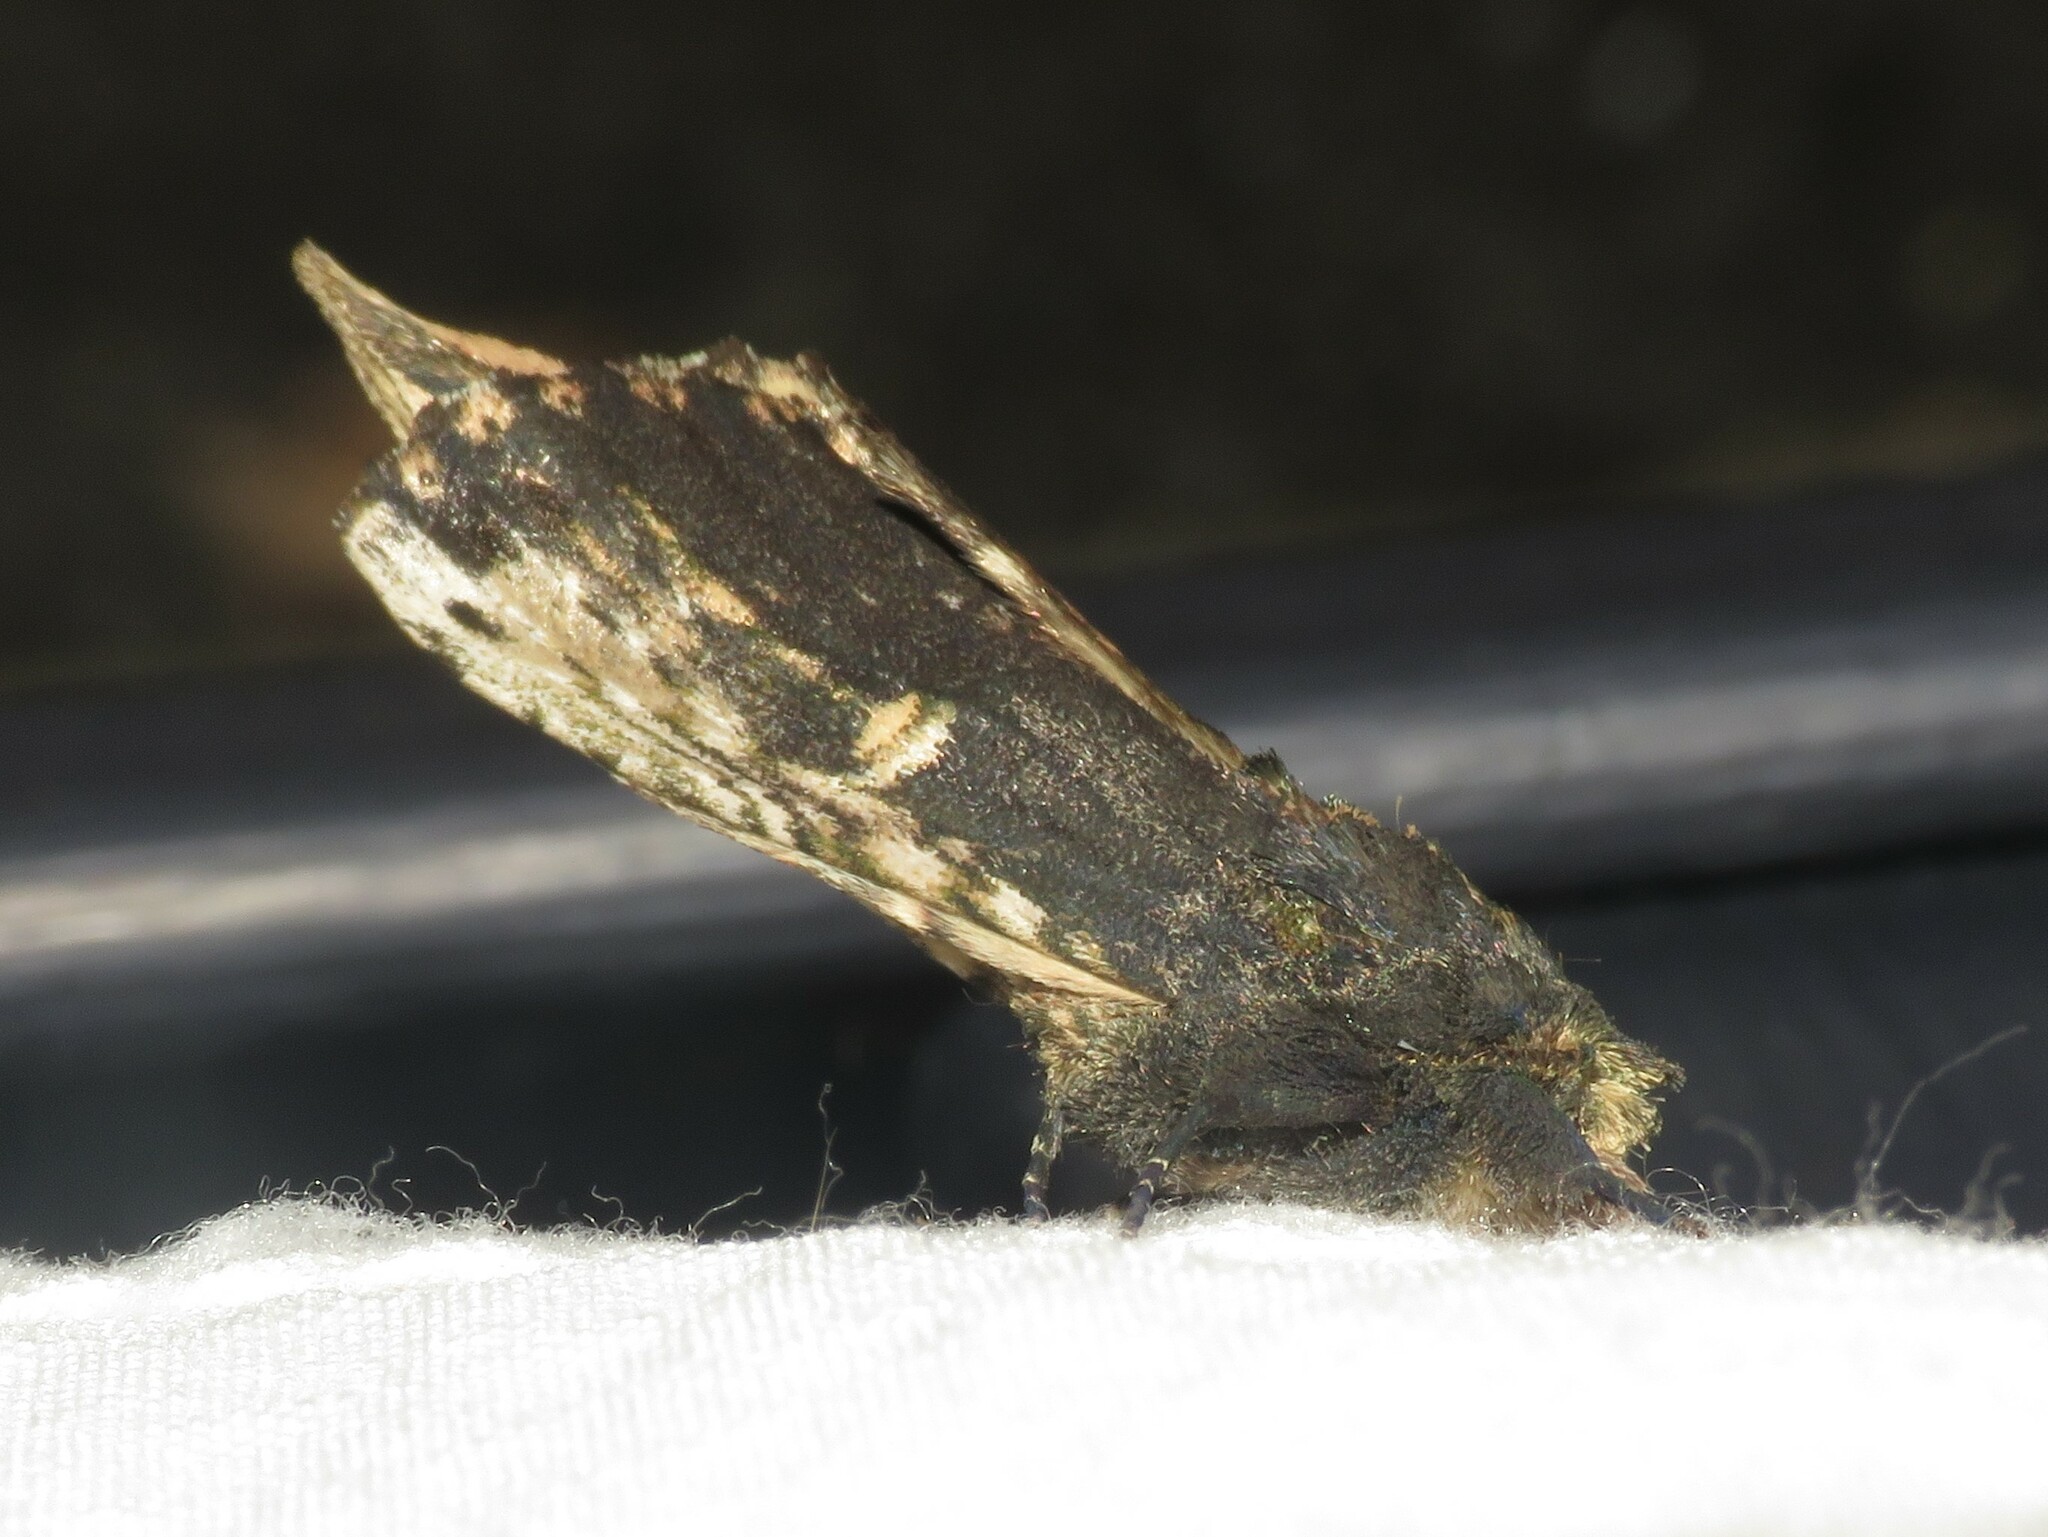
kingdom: Animalia
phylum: Arthropoda
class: Insecta
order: Lepidoptera
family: Notodontidae
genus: Schizura
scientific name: Schizura ipomaeae
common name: Morning-glory prominent
